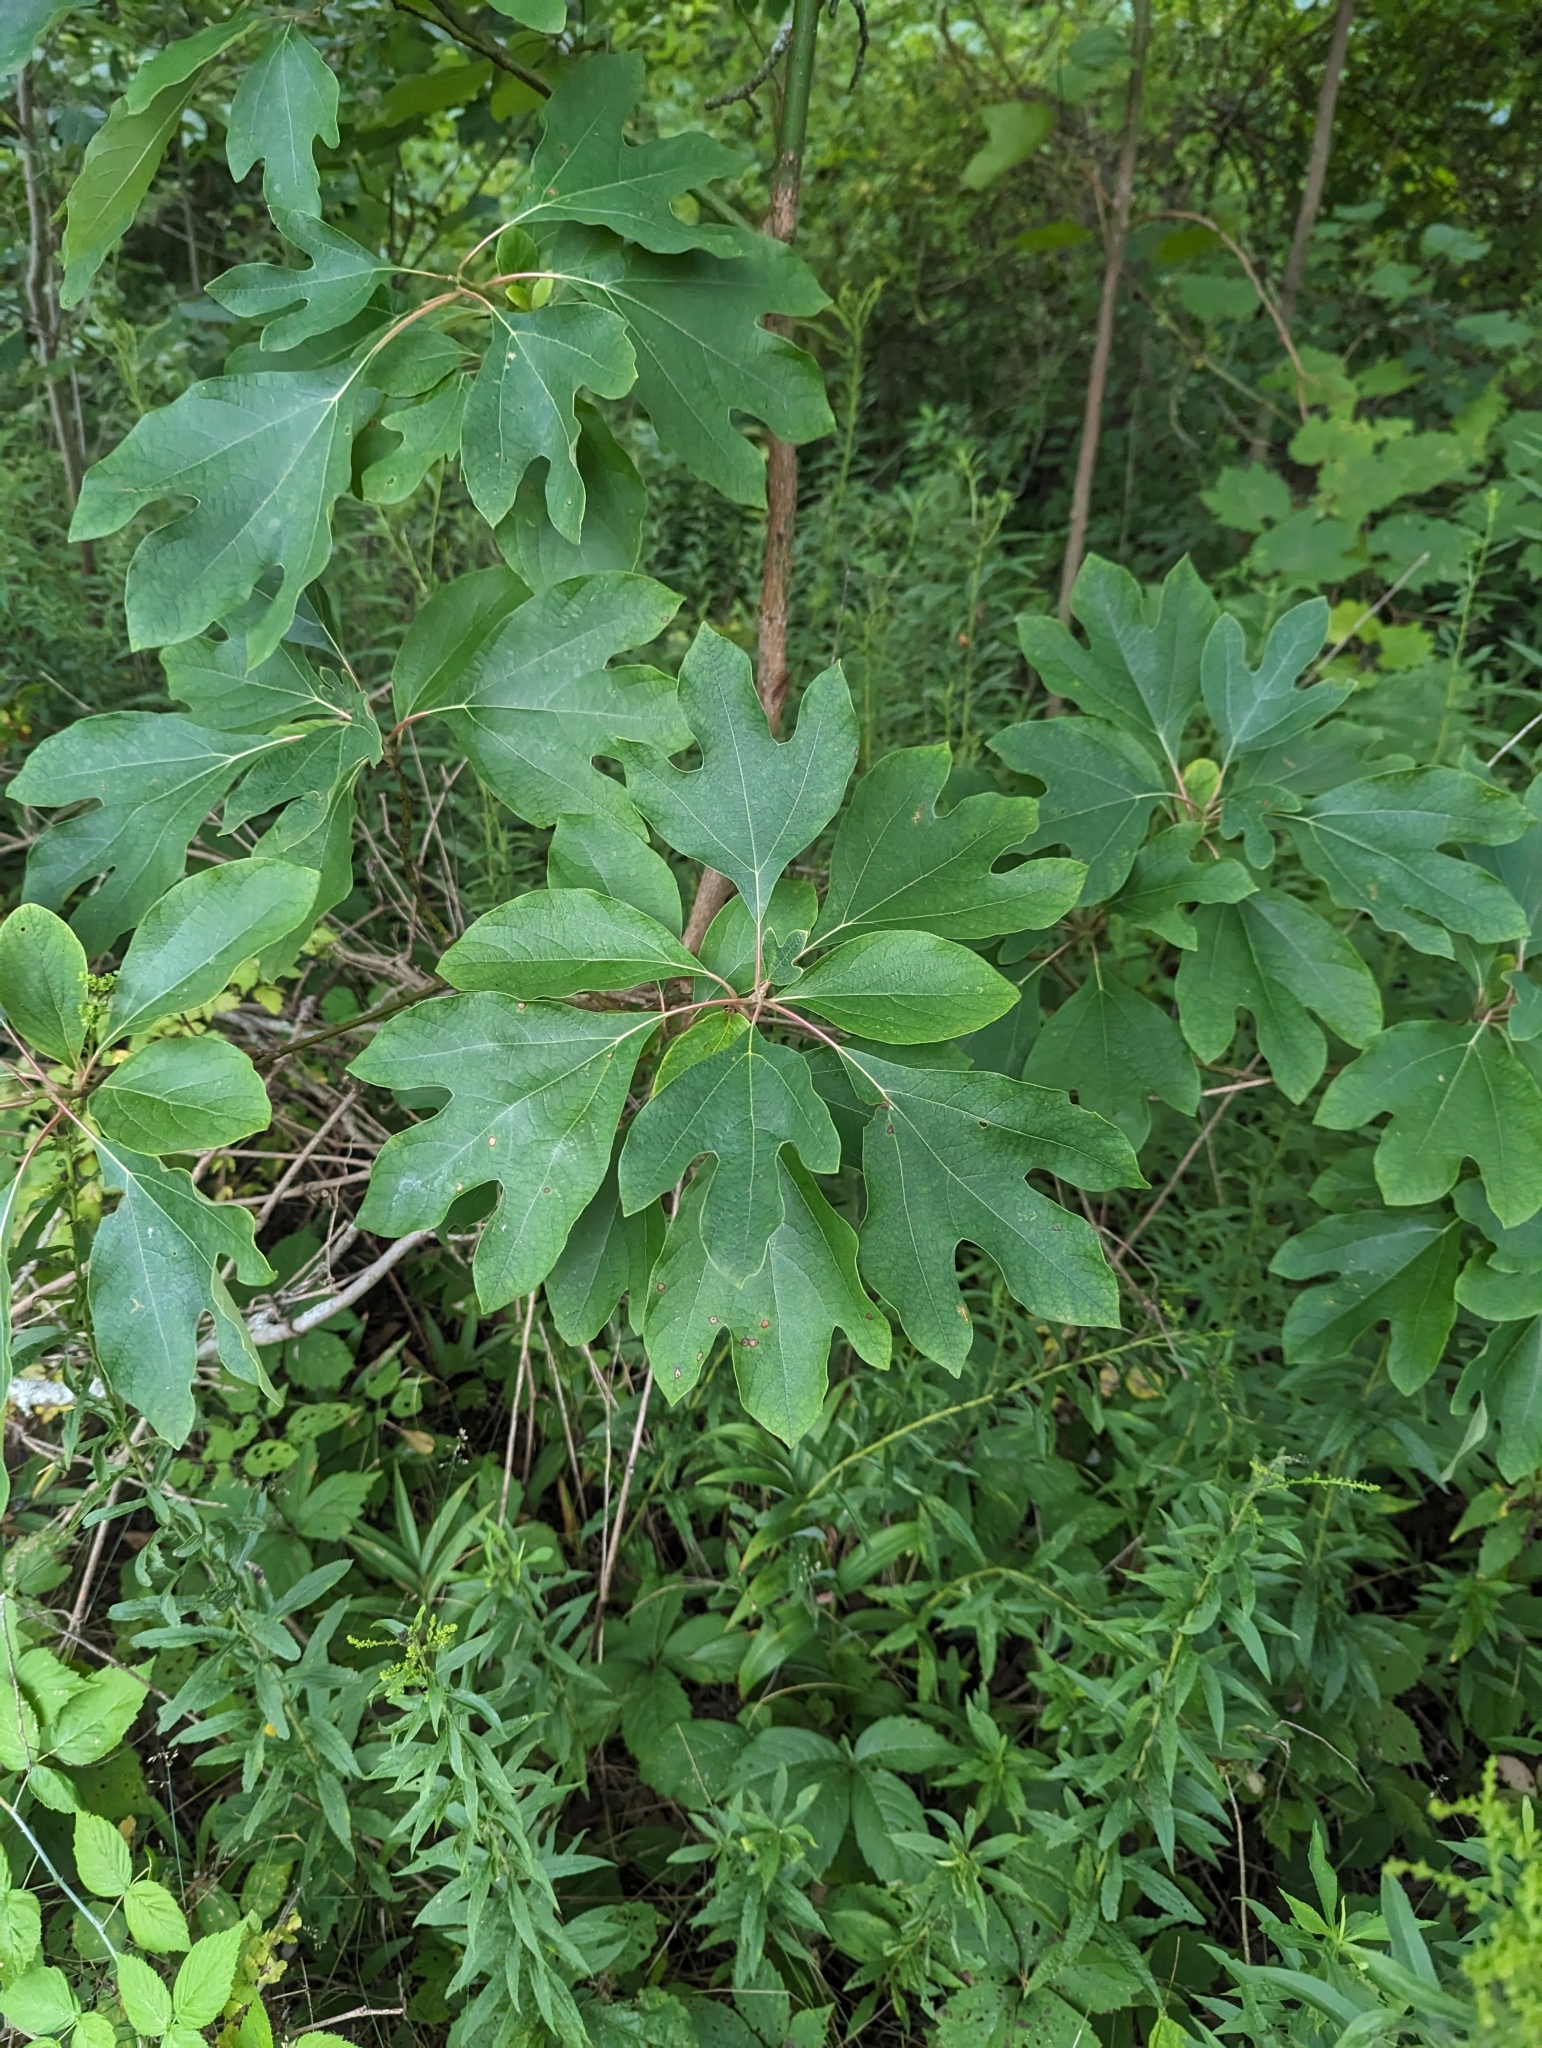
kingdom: Plantae
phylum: Tracheophyta
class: Magnoliopsida
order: Laurales
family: Lauraceae
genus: Sassafras
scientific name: Sassafras albidum
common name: Sassafras
